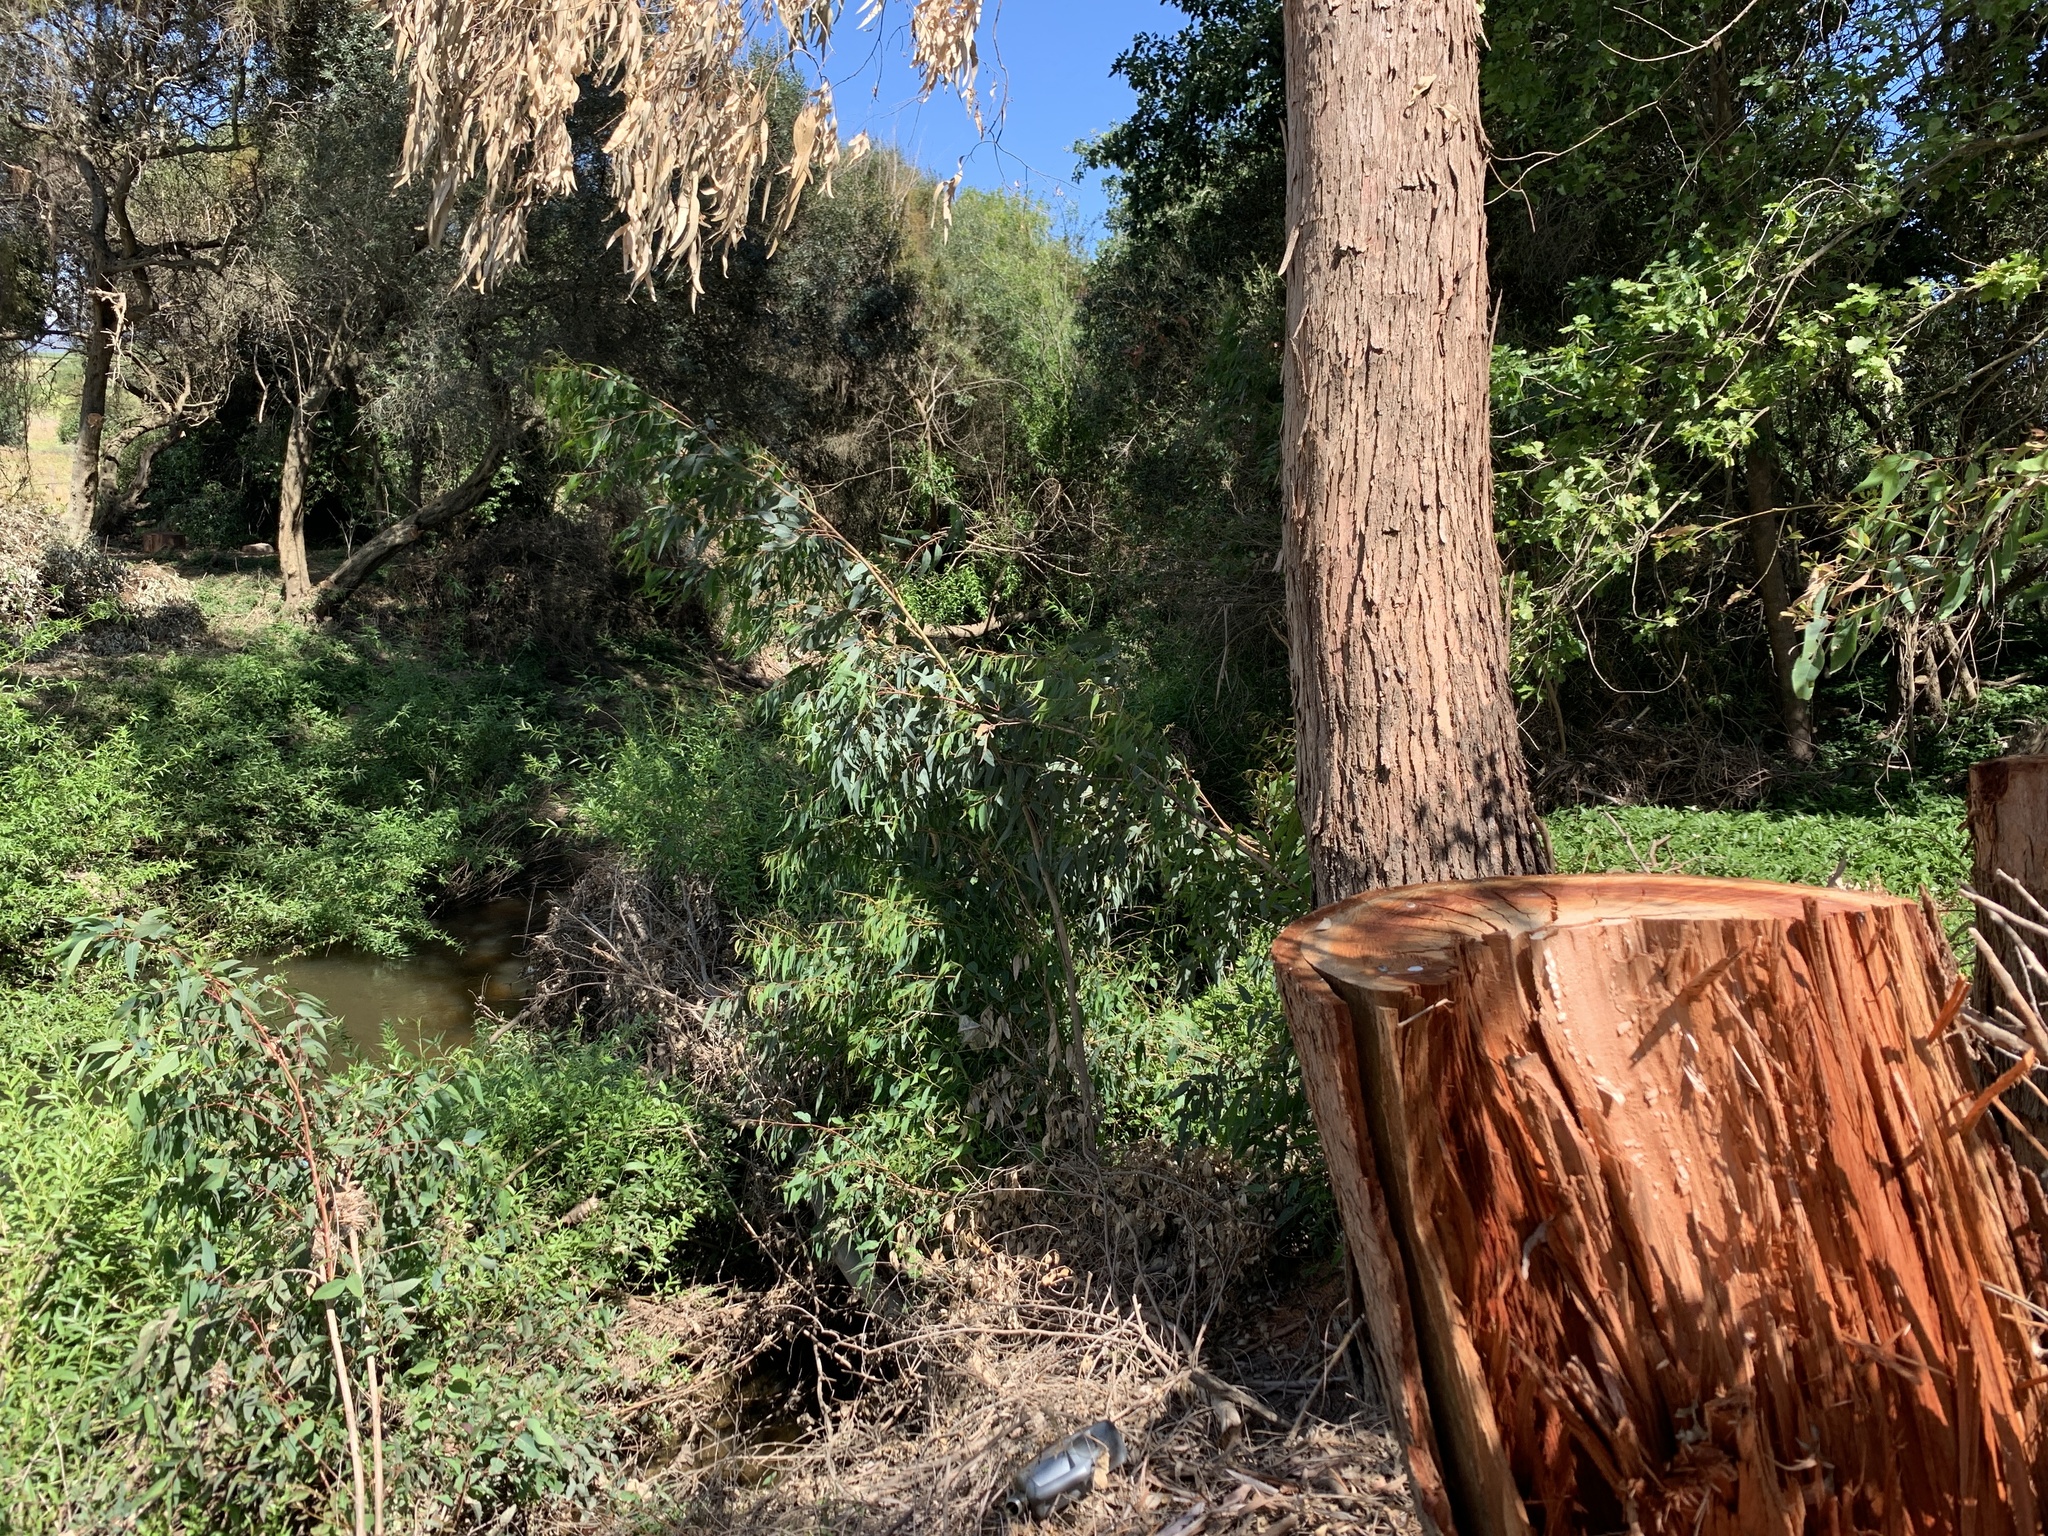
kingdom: Plantae
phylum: Tracheophyta
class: Magnoliopsida
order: Myrtales
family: Myrtaceae
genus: Eucalyptus
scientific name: Eucalyptus camaldulensis
